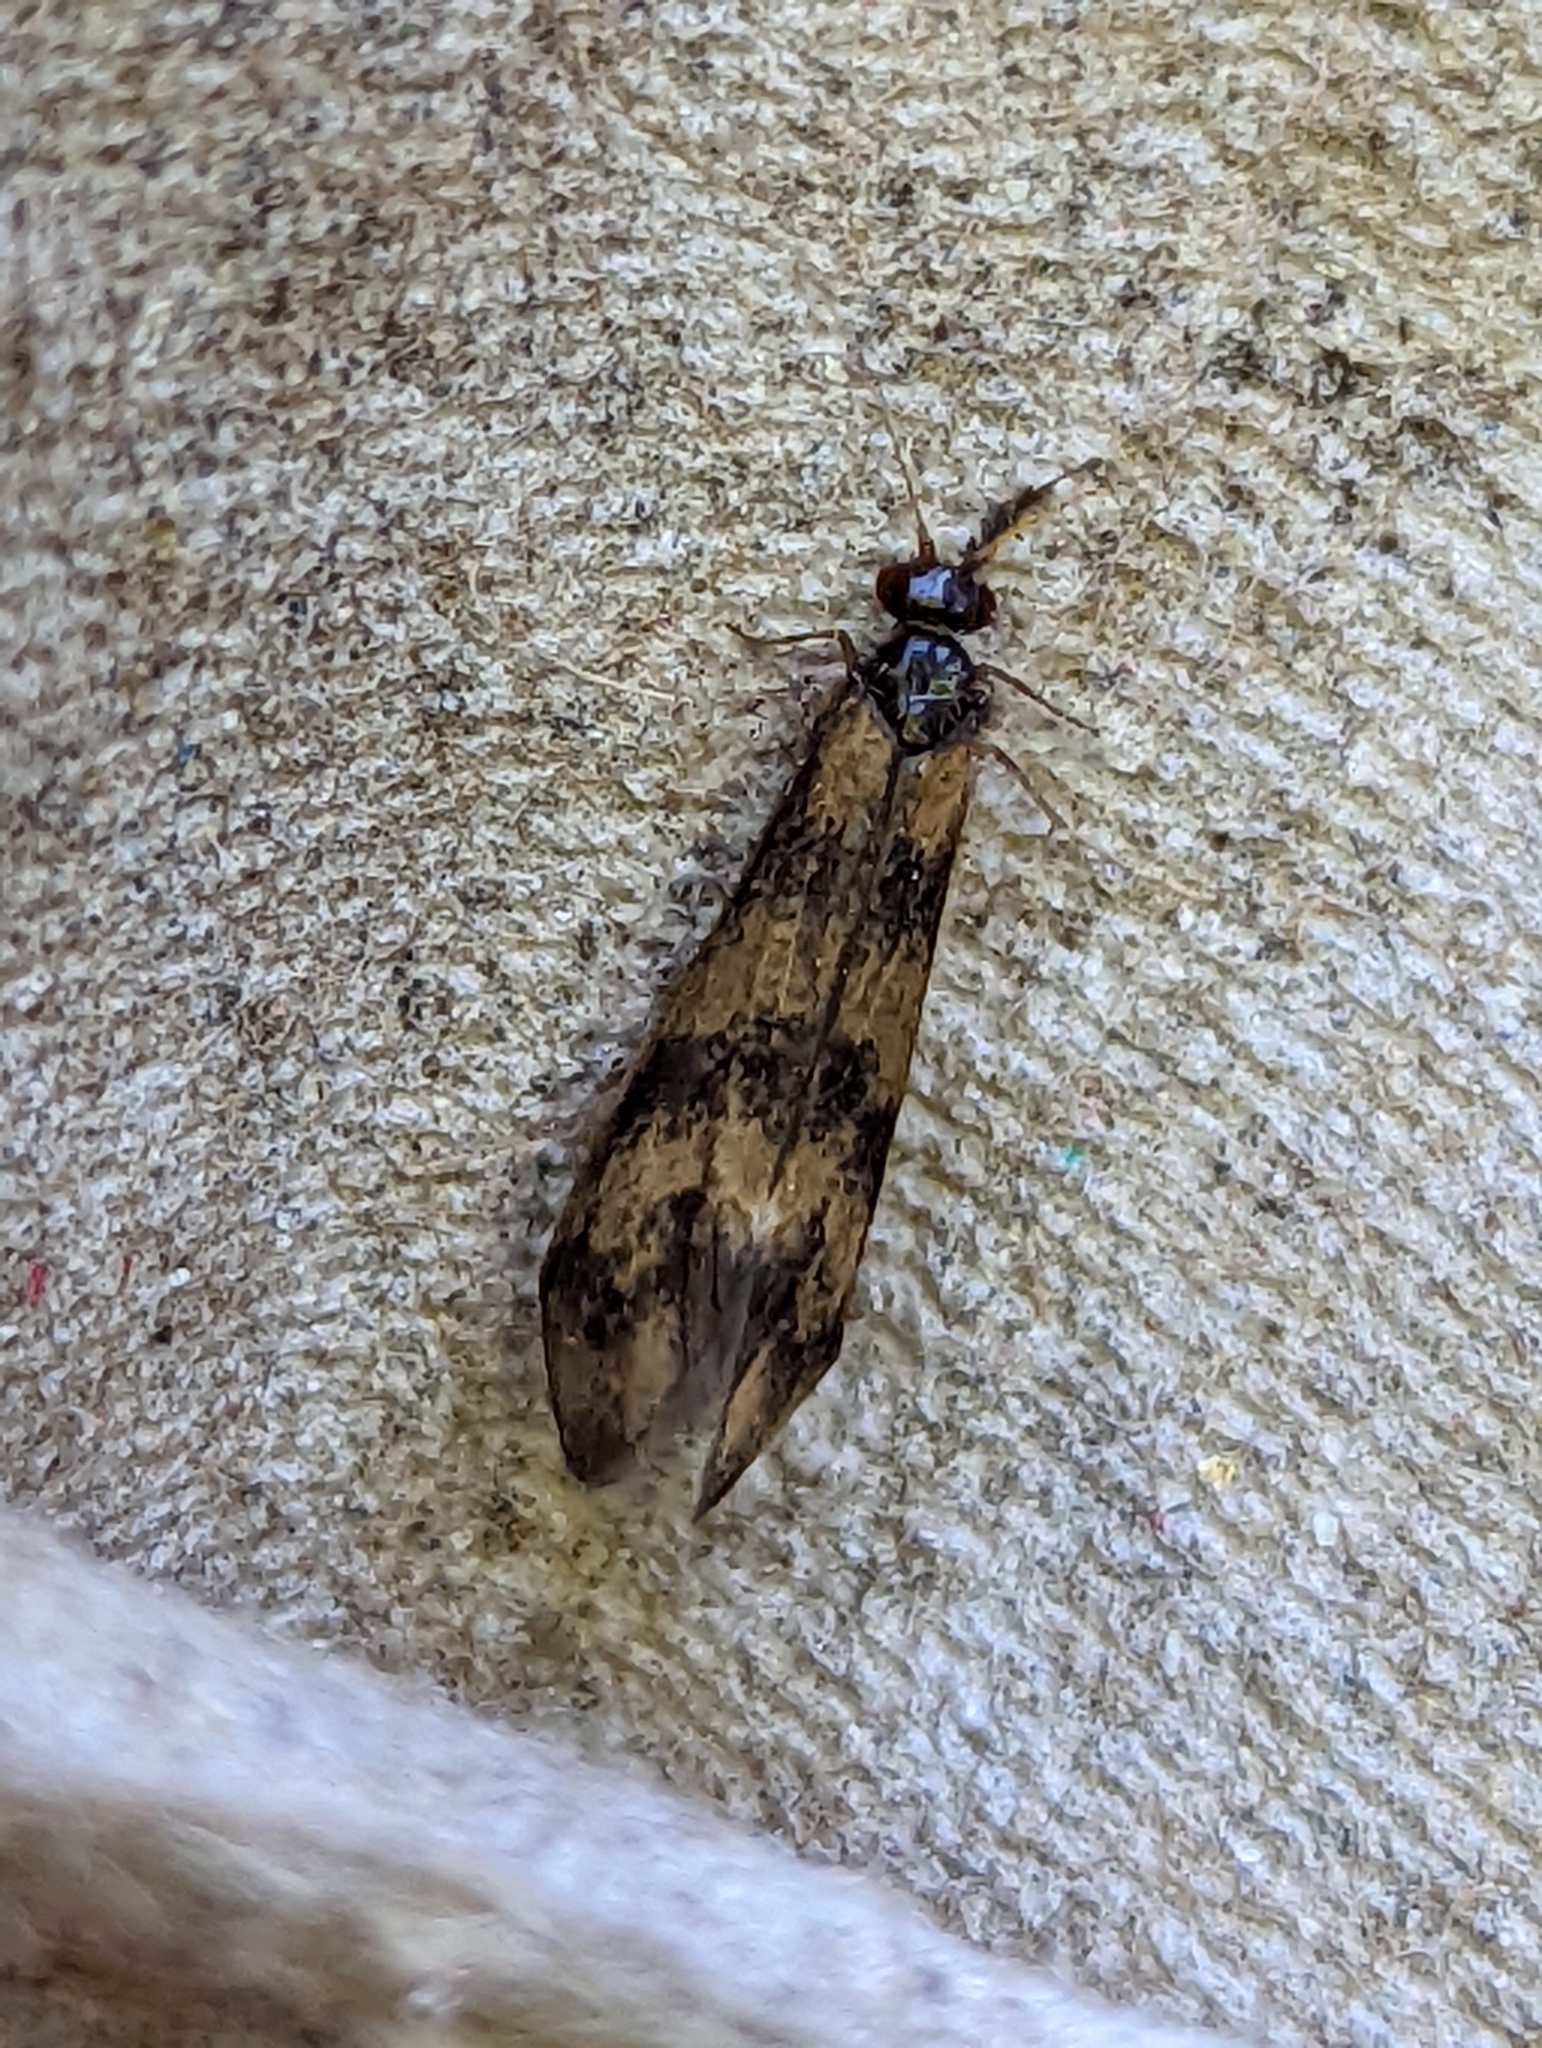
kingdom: Animalia
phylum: Arthropoda
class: Insecta
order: Trichoptera
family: Leptoceridae
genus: Mystacides
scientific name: Mystacides longicornis
